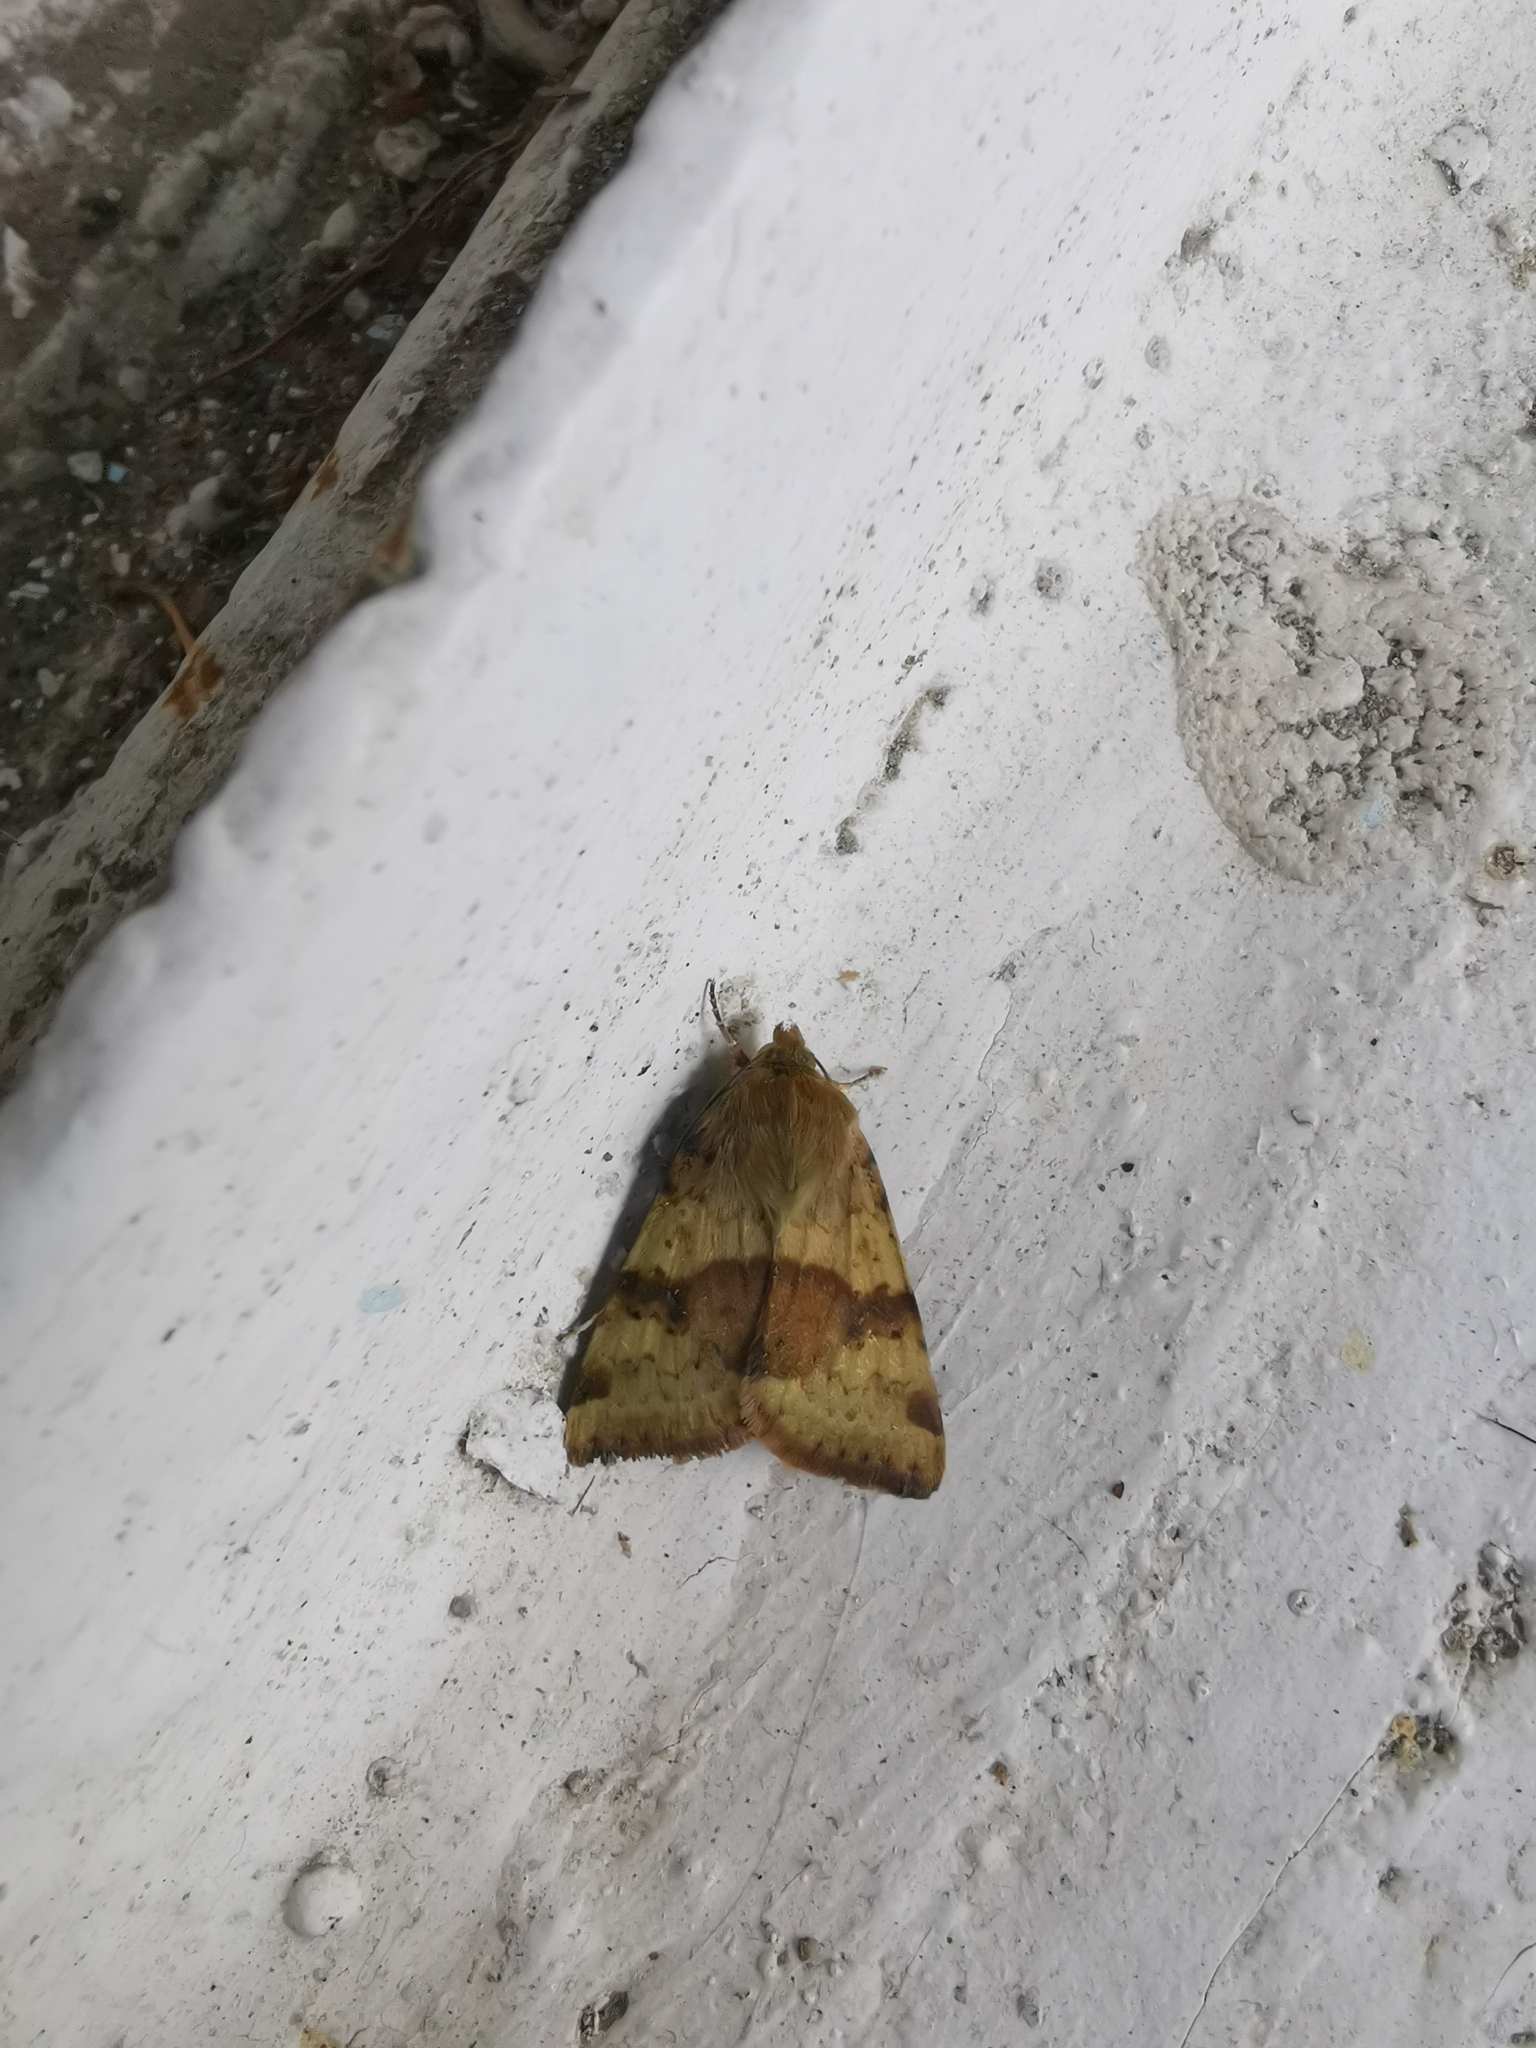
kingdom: Animalia
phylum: Arthropoda
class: Insecta
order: Lepidoptera
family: Noctuidae
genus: Heliothis
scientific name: Heliothis viriplaca
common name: Marbled clover
